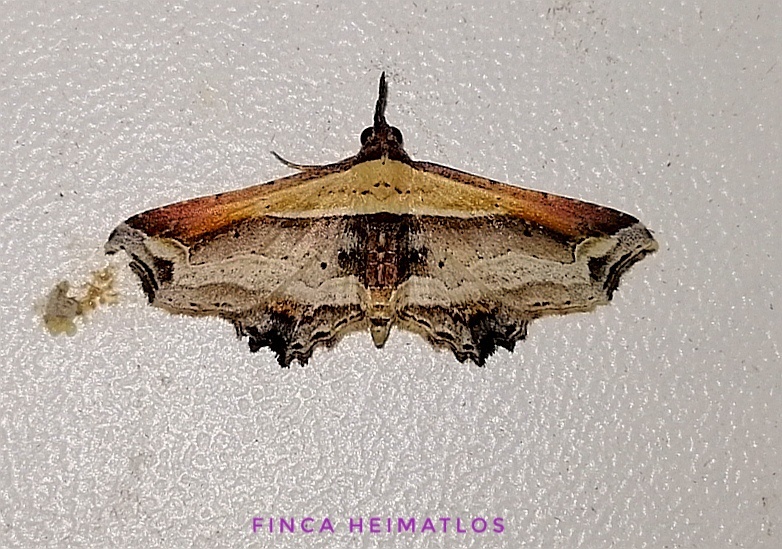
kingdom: Animalia
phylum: Arthropoda
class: Insecta
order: Lepidoptera
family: Erebidae
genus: Eugoniella
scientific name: Eugoniella sapota
